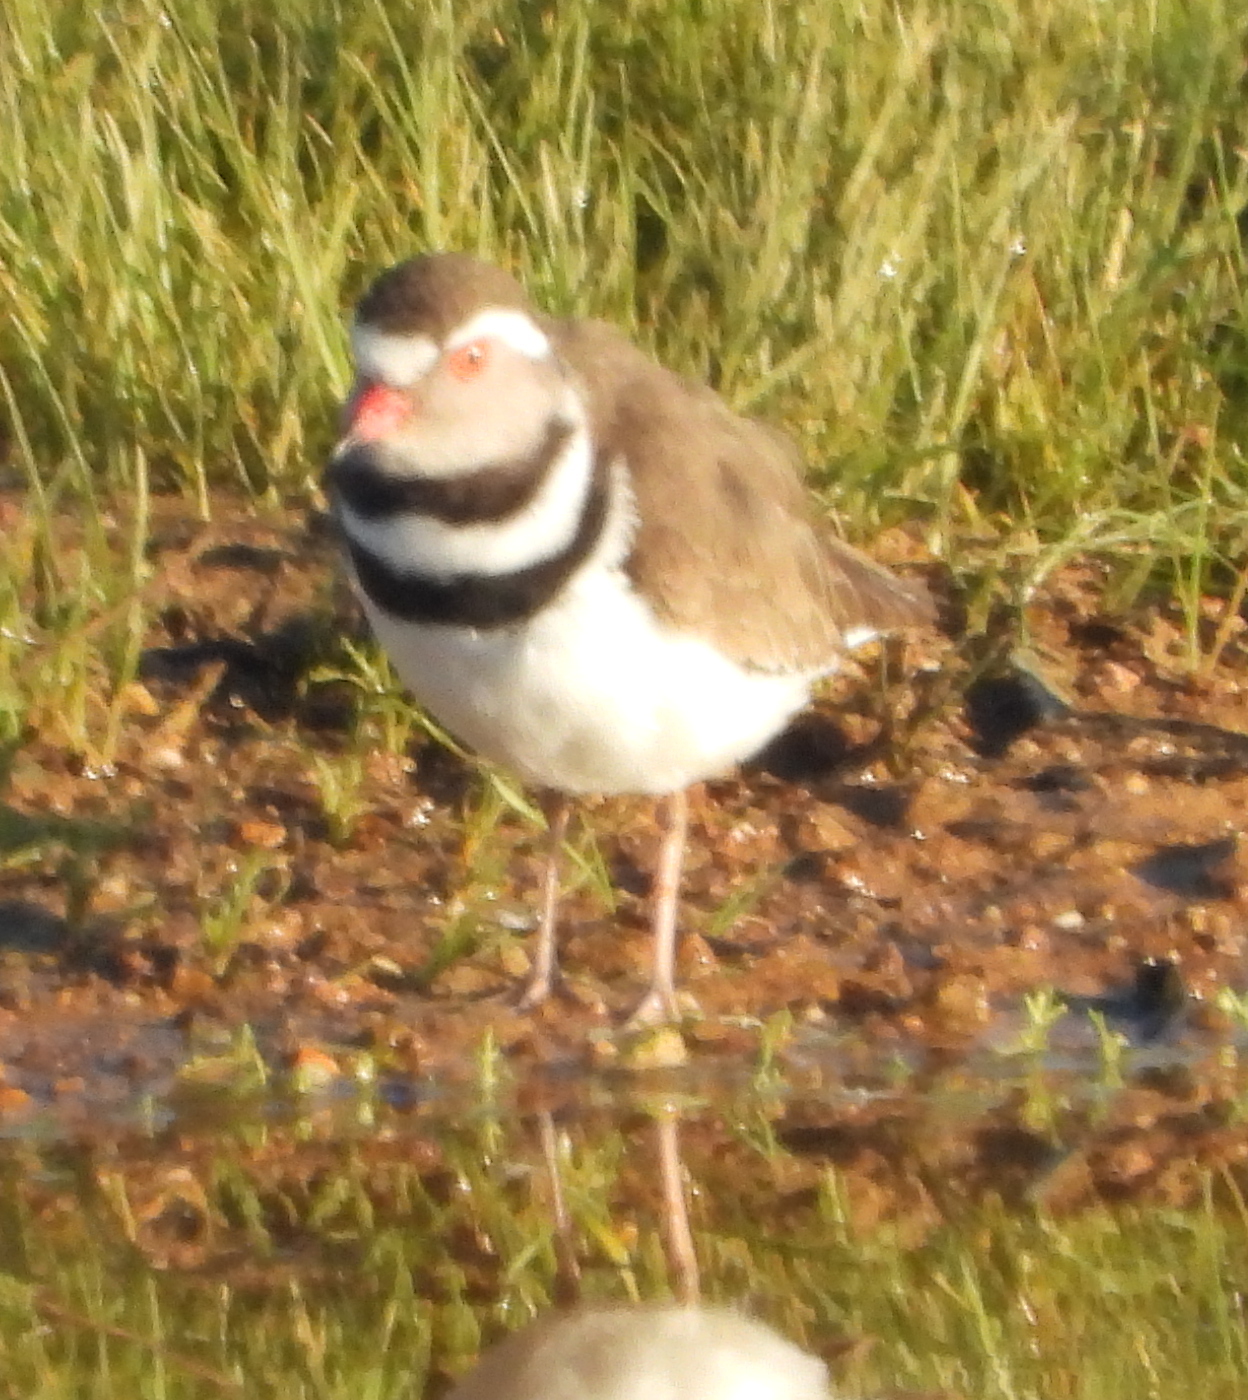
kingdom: Animalia
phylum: Chordata
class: Aves
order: Charadriiformes
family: Charadriidae
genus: Charadrius
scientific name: Charadrius tricollaris
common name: Three-banded plover
